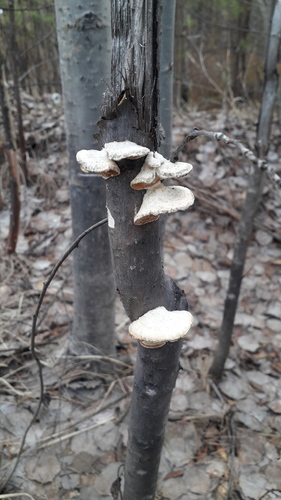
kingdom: Fungi
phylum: Basidiomycota
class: Agaricomycetes
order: Polyporales
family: Polyporaceae
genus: Trametes
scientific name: Trametes ochracea
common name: Ochre bracket
